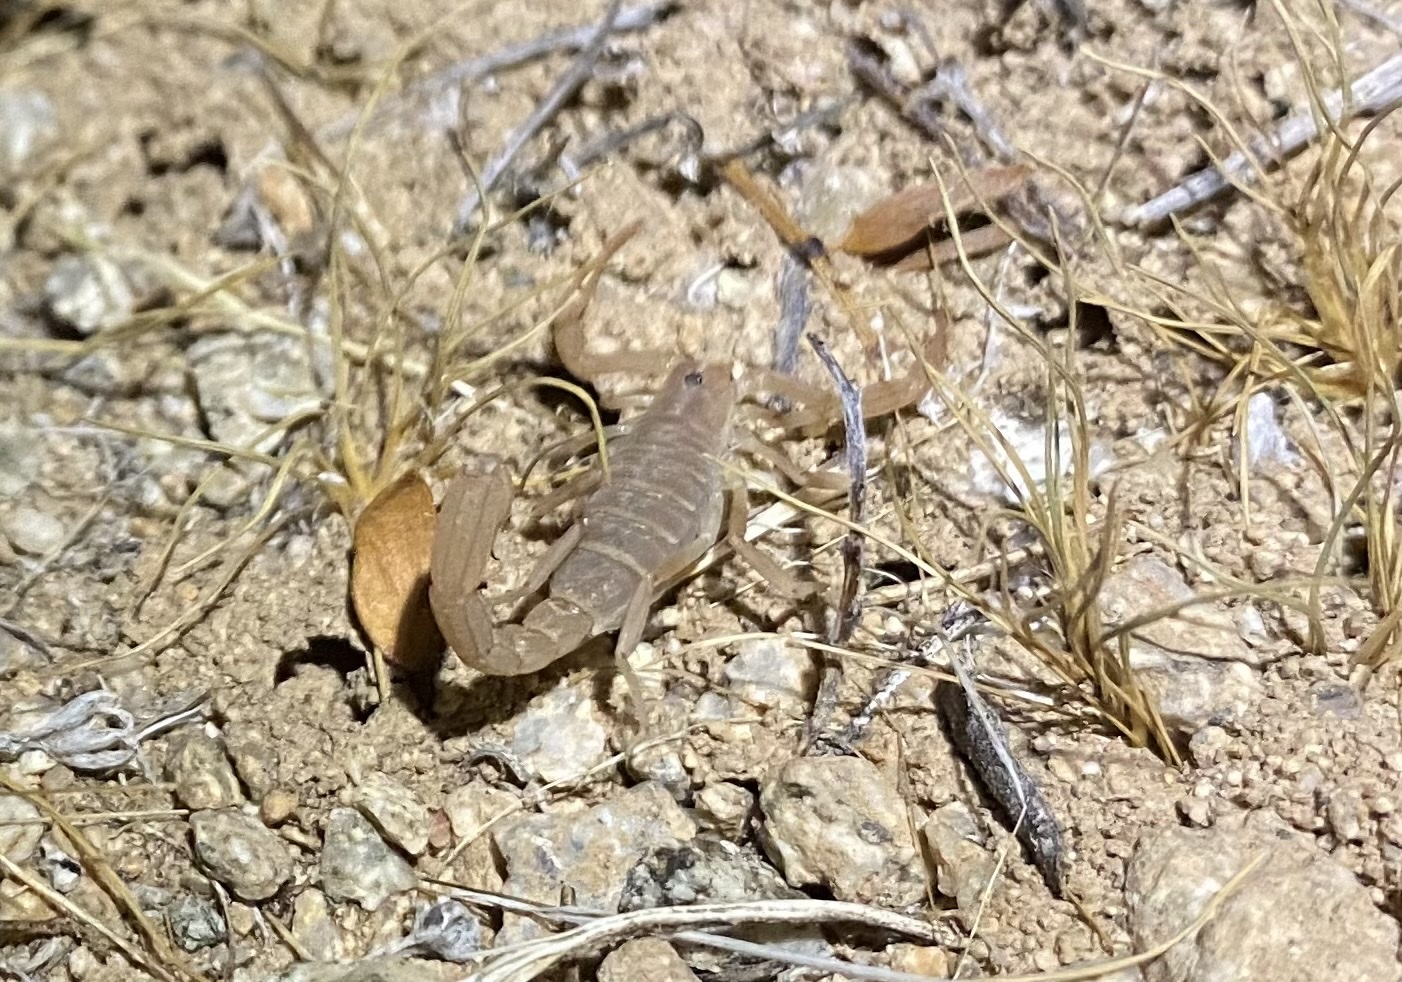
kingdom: Animalia
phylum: Arthropoda
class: Arachnida
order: Scorpiones
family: Vaejovidae
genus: Paravaejovis
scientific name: Paravaejovis confusus
